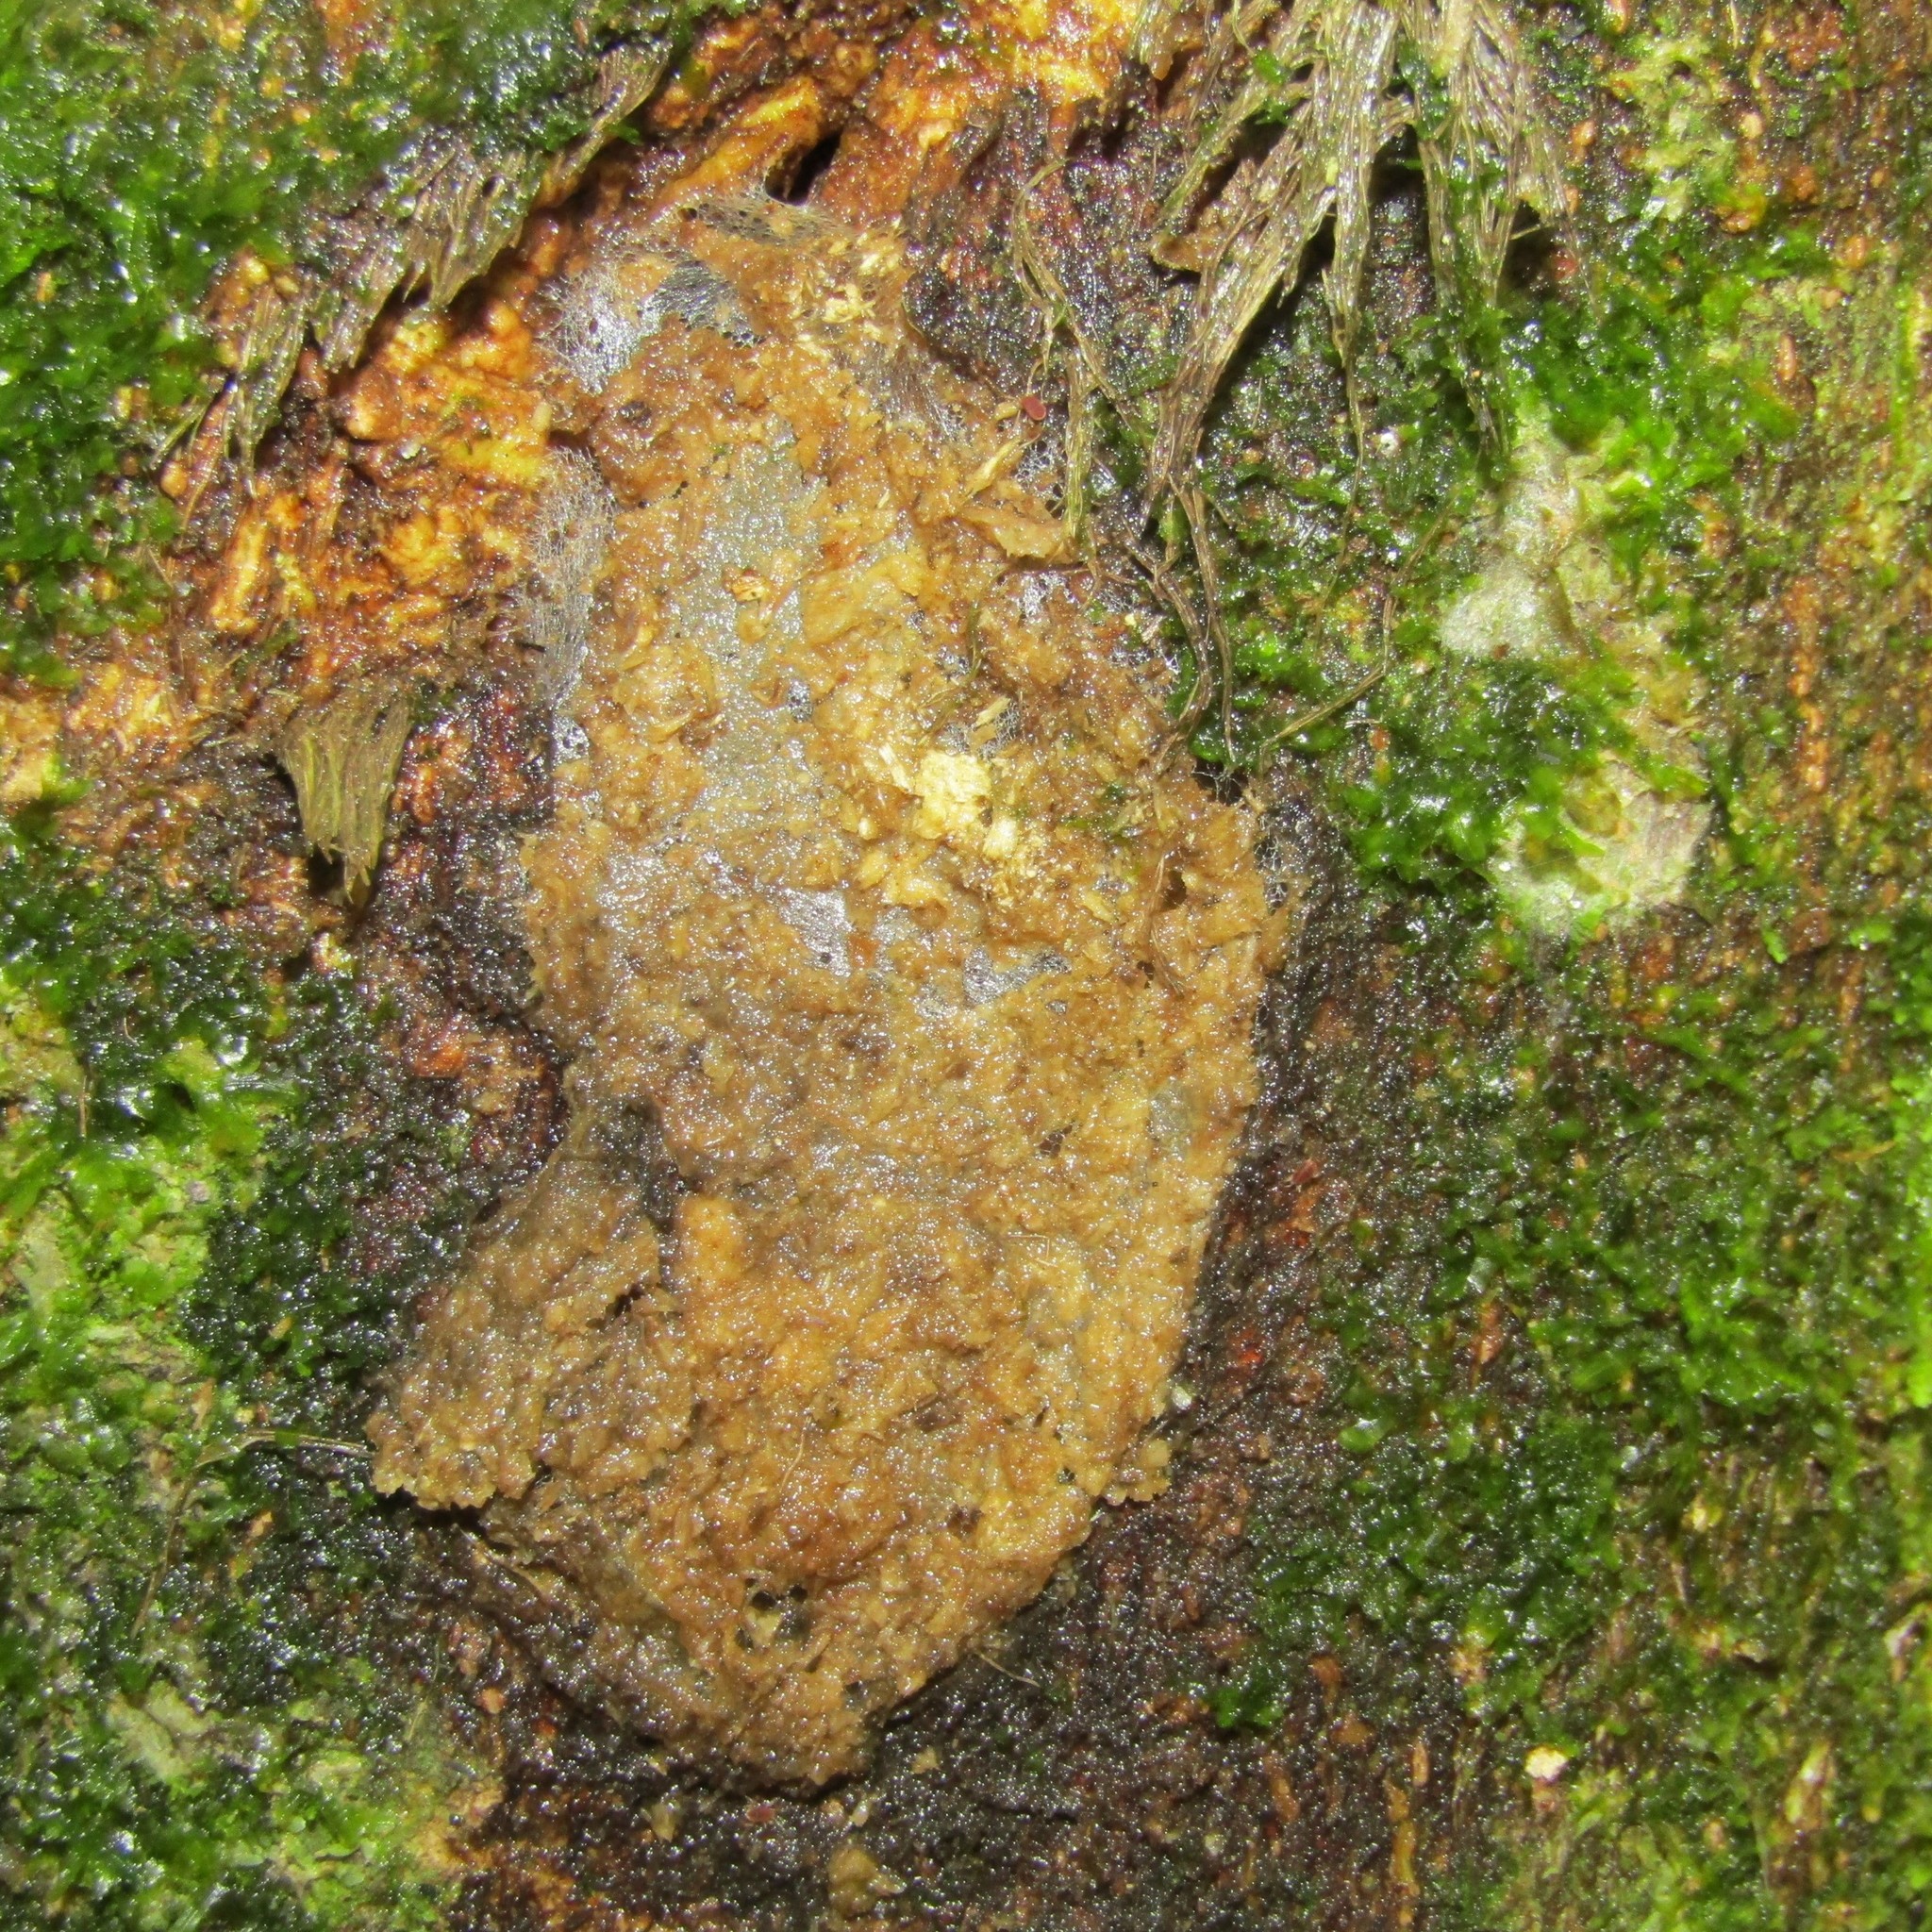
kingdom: Animalia
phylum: Arthropoda
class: Insecta
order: Lepidoptera
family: Hepialidae
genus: Aenetus
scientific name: Aenetus virescens
